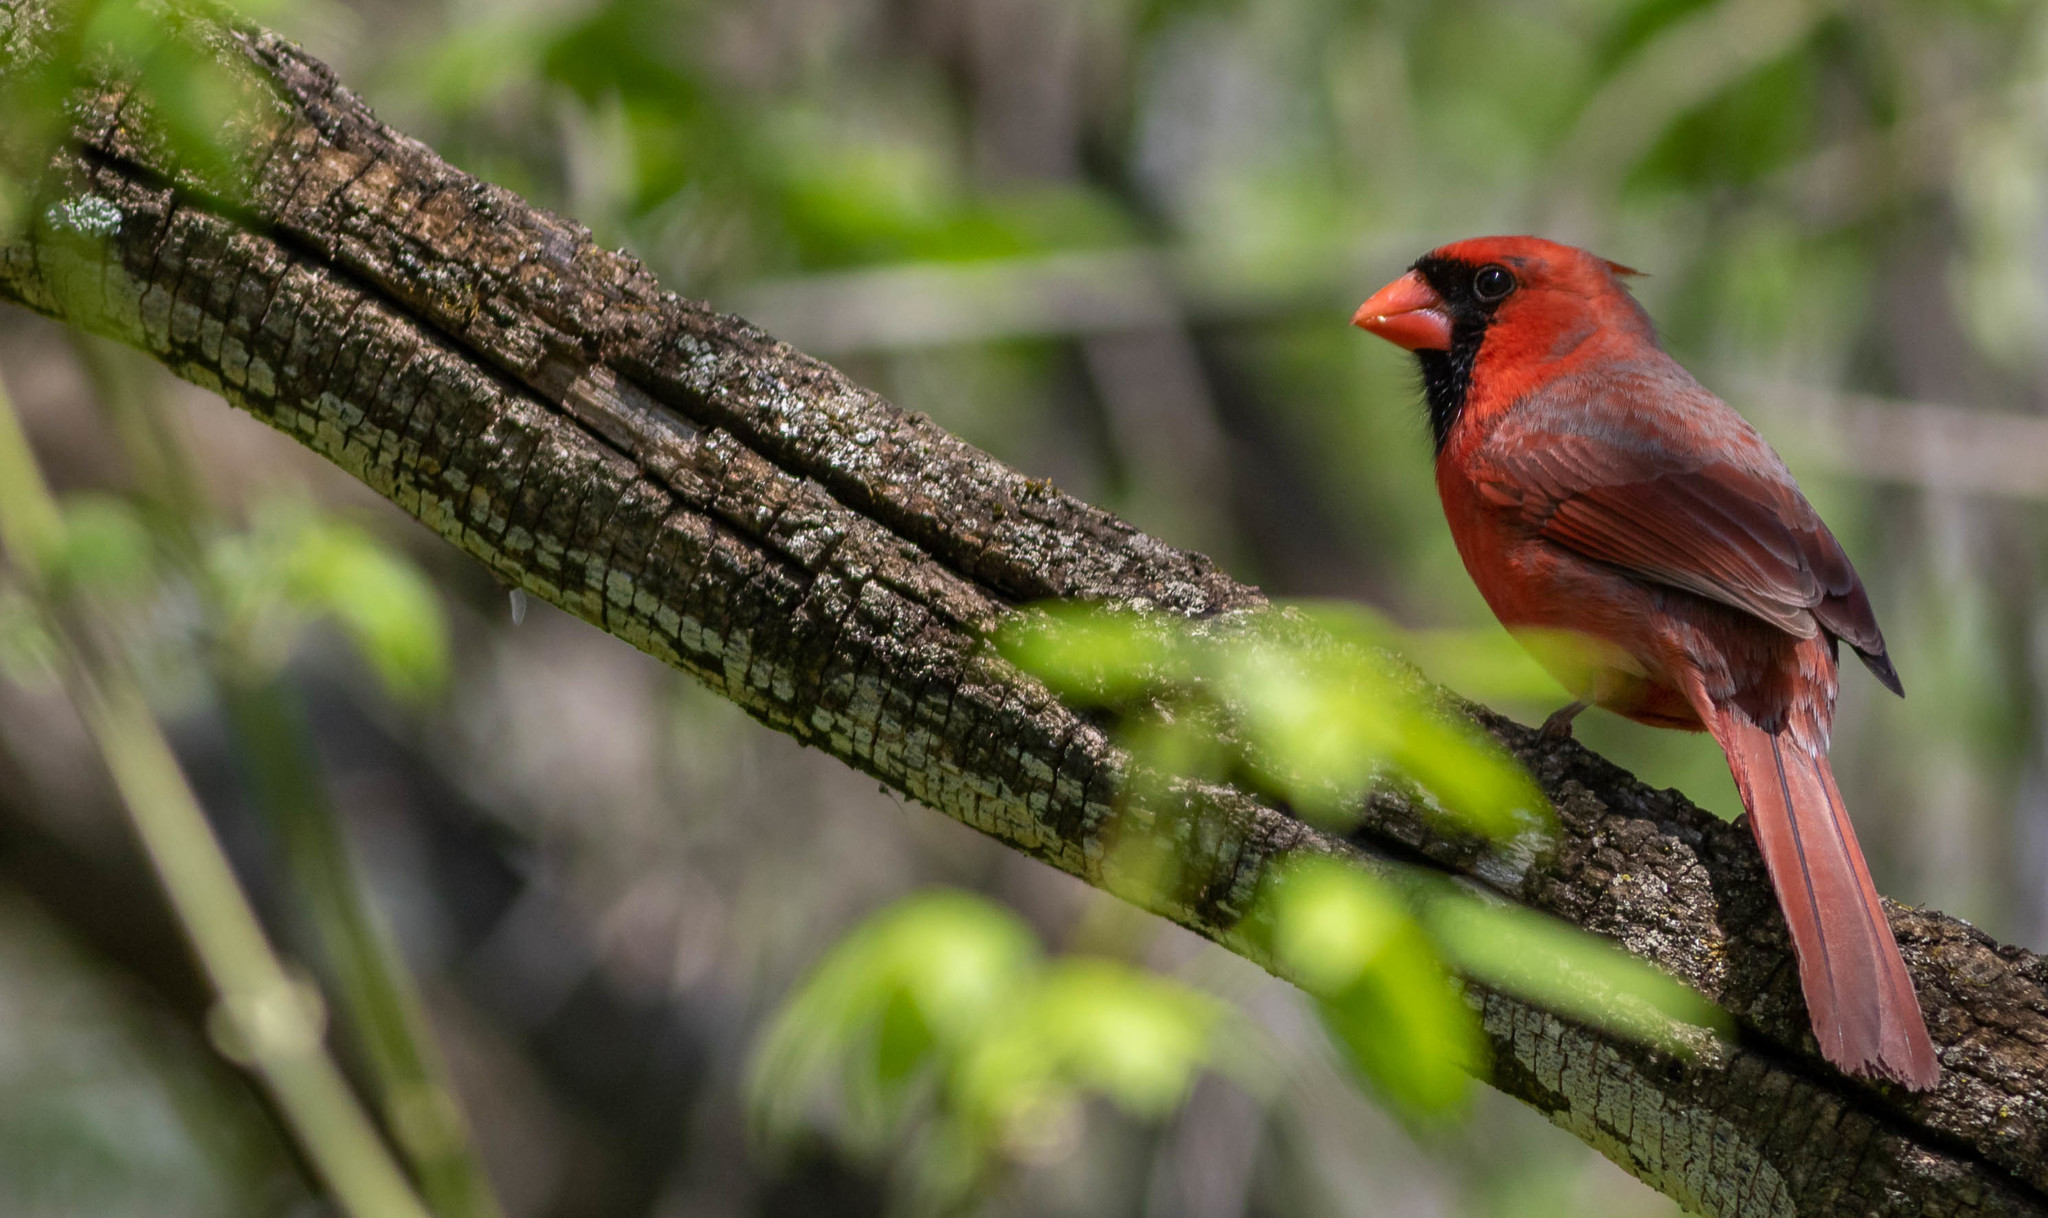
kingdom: Animalia
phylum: Chordata
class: Aves
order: Passeriformes
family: Cardinalidae
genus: Cardinalis
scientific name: Cardinalis cardinalis
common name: Northern cardinal
